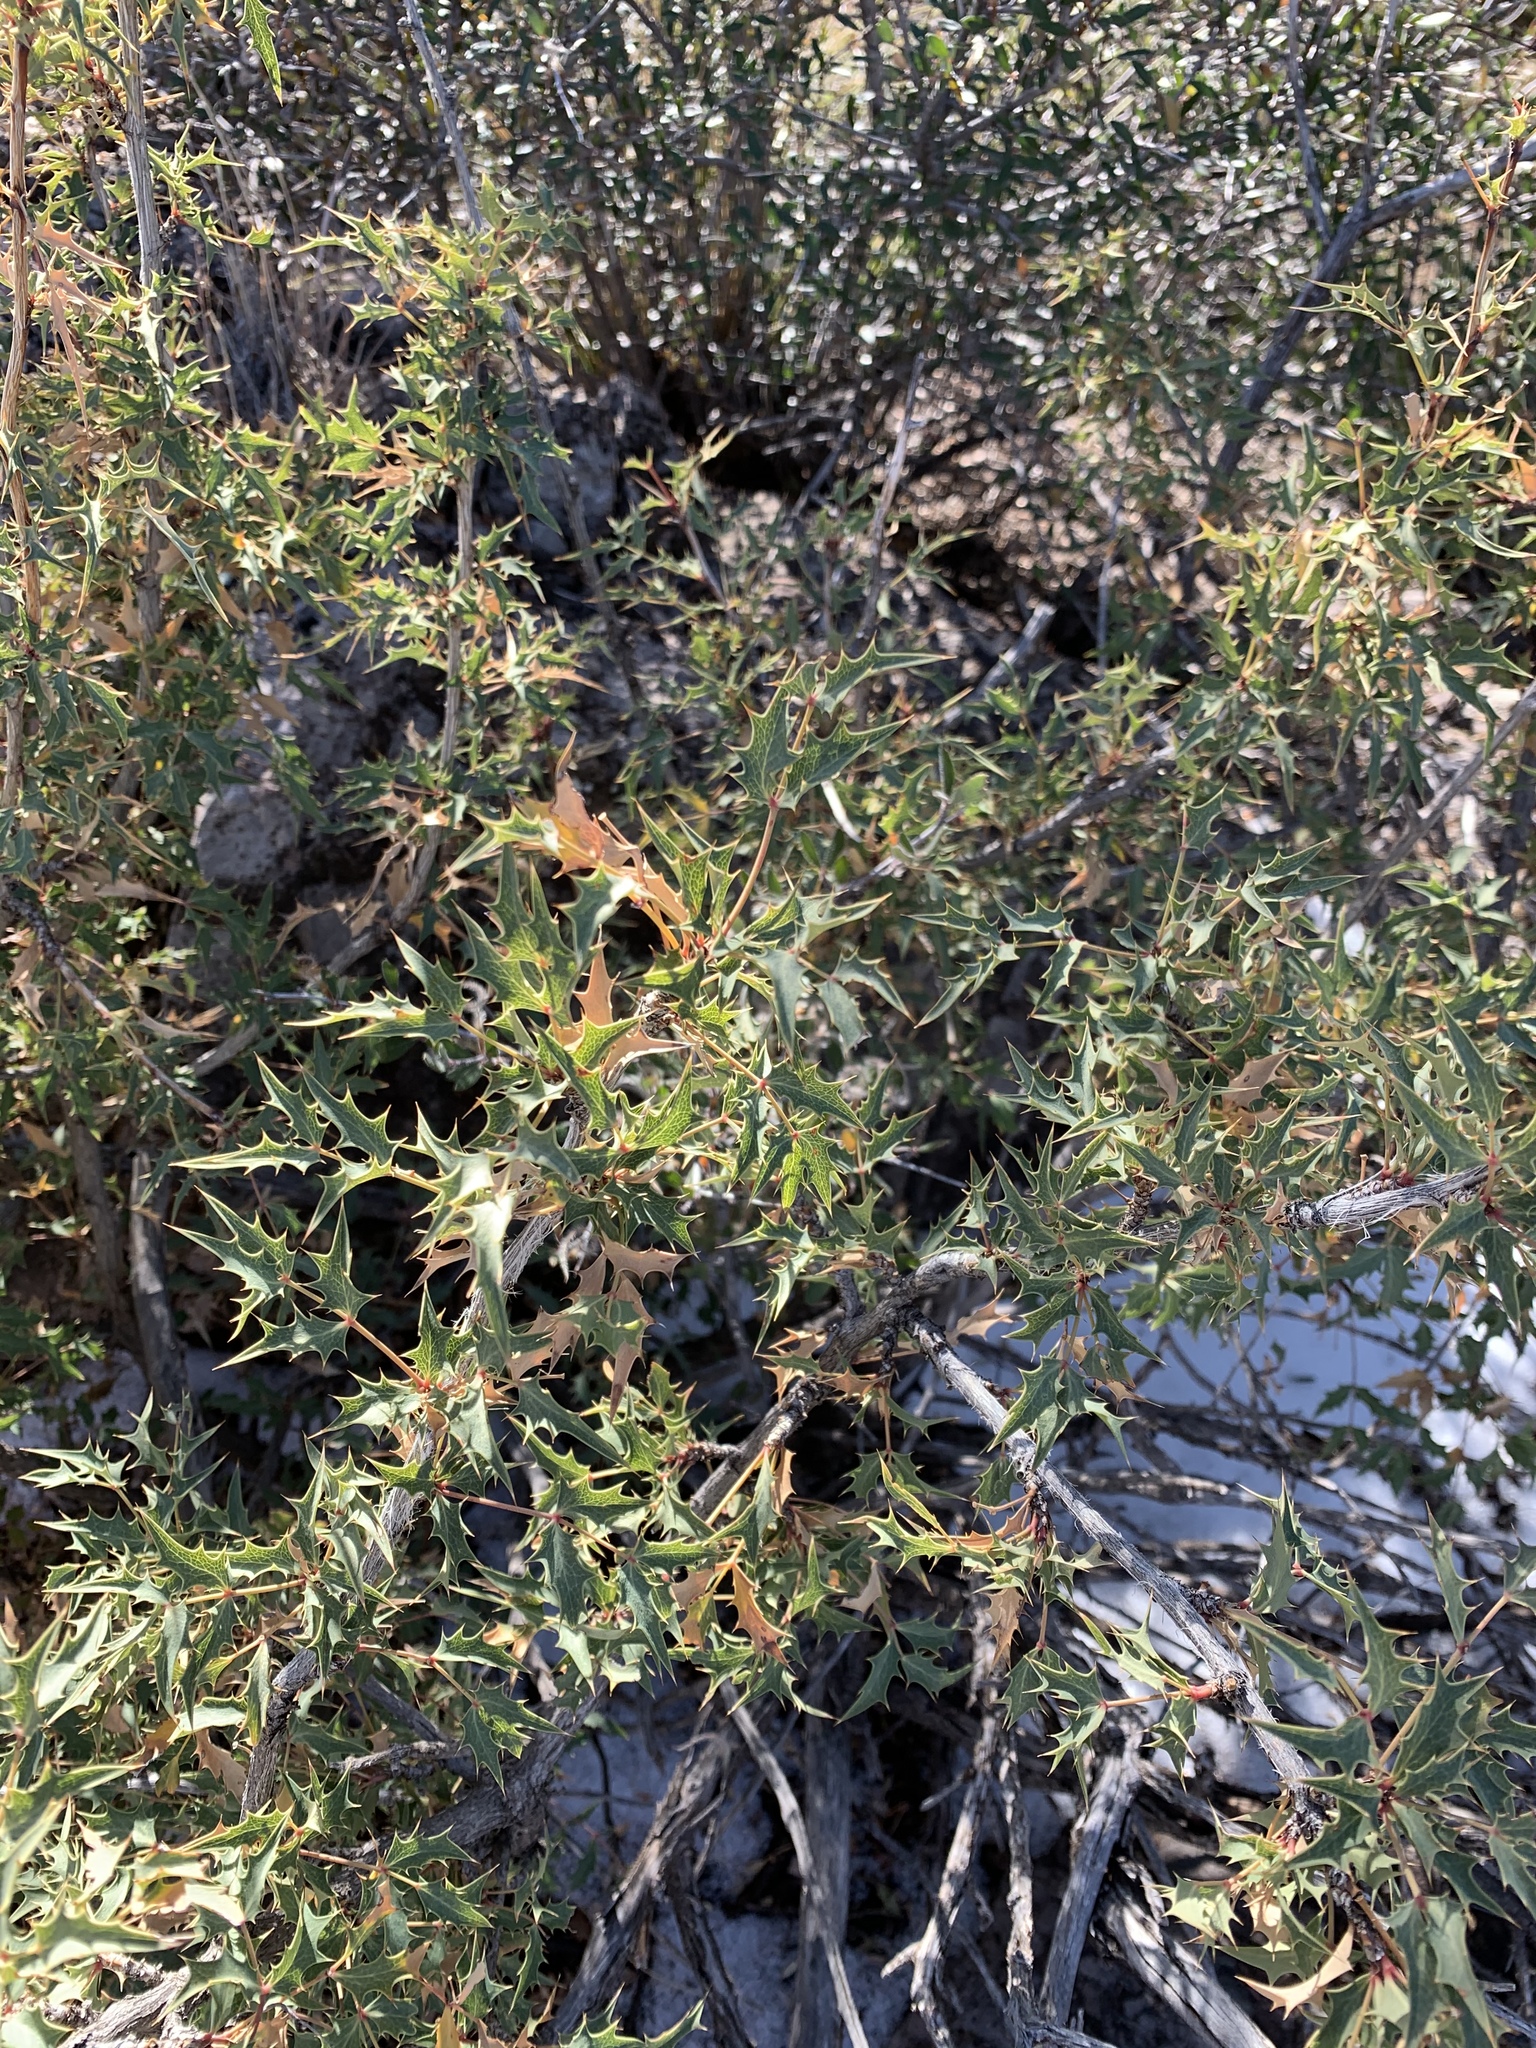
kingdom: Plantae
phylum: Tracheophyta
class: Magnoliopsida
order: Ranunculales
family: Berberidaceae
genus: Alloberberis
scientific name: Alloberberis haematocarpa
